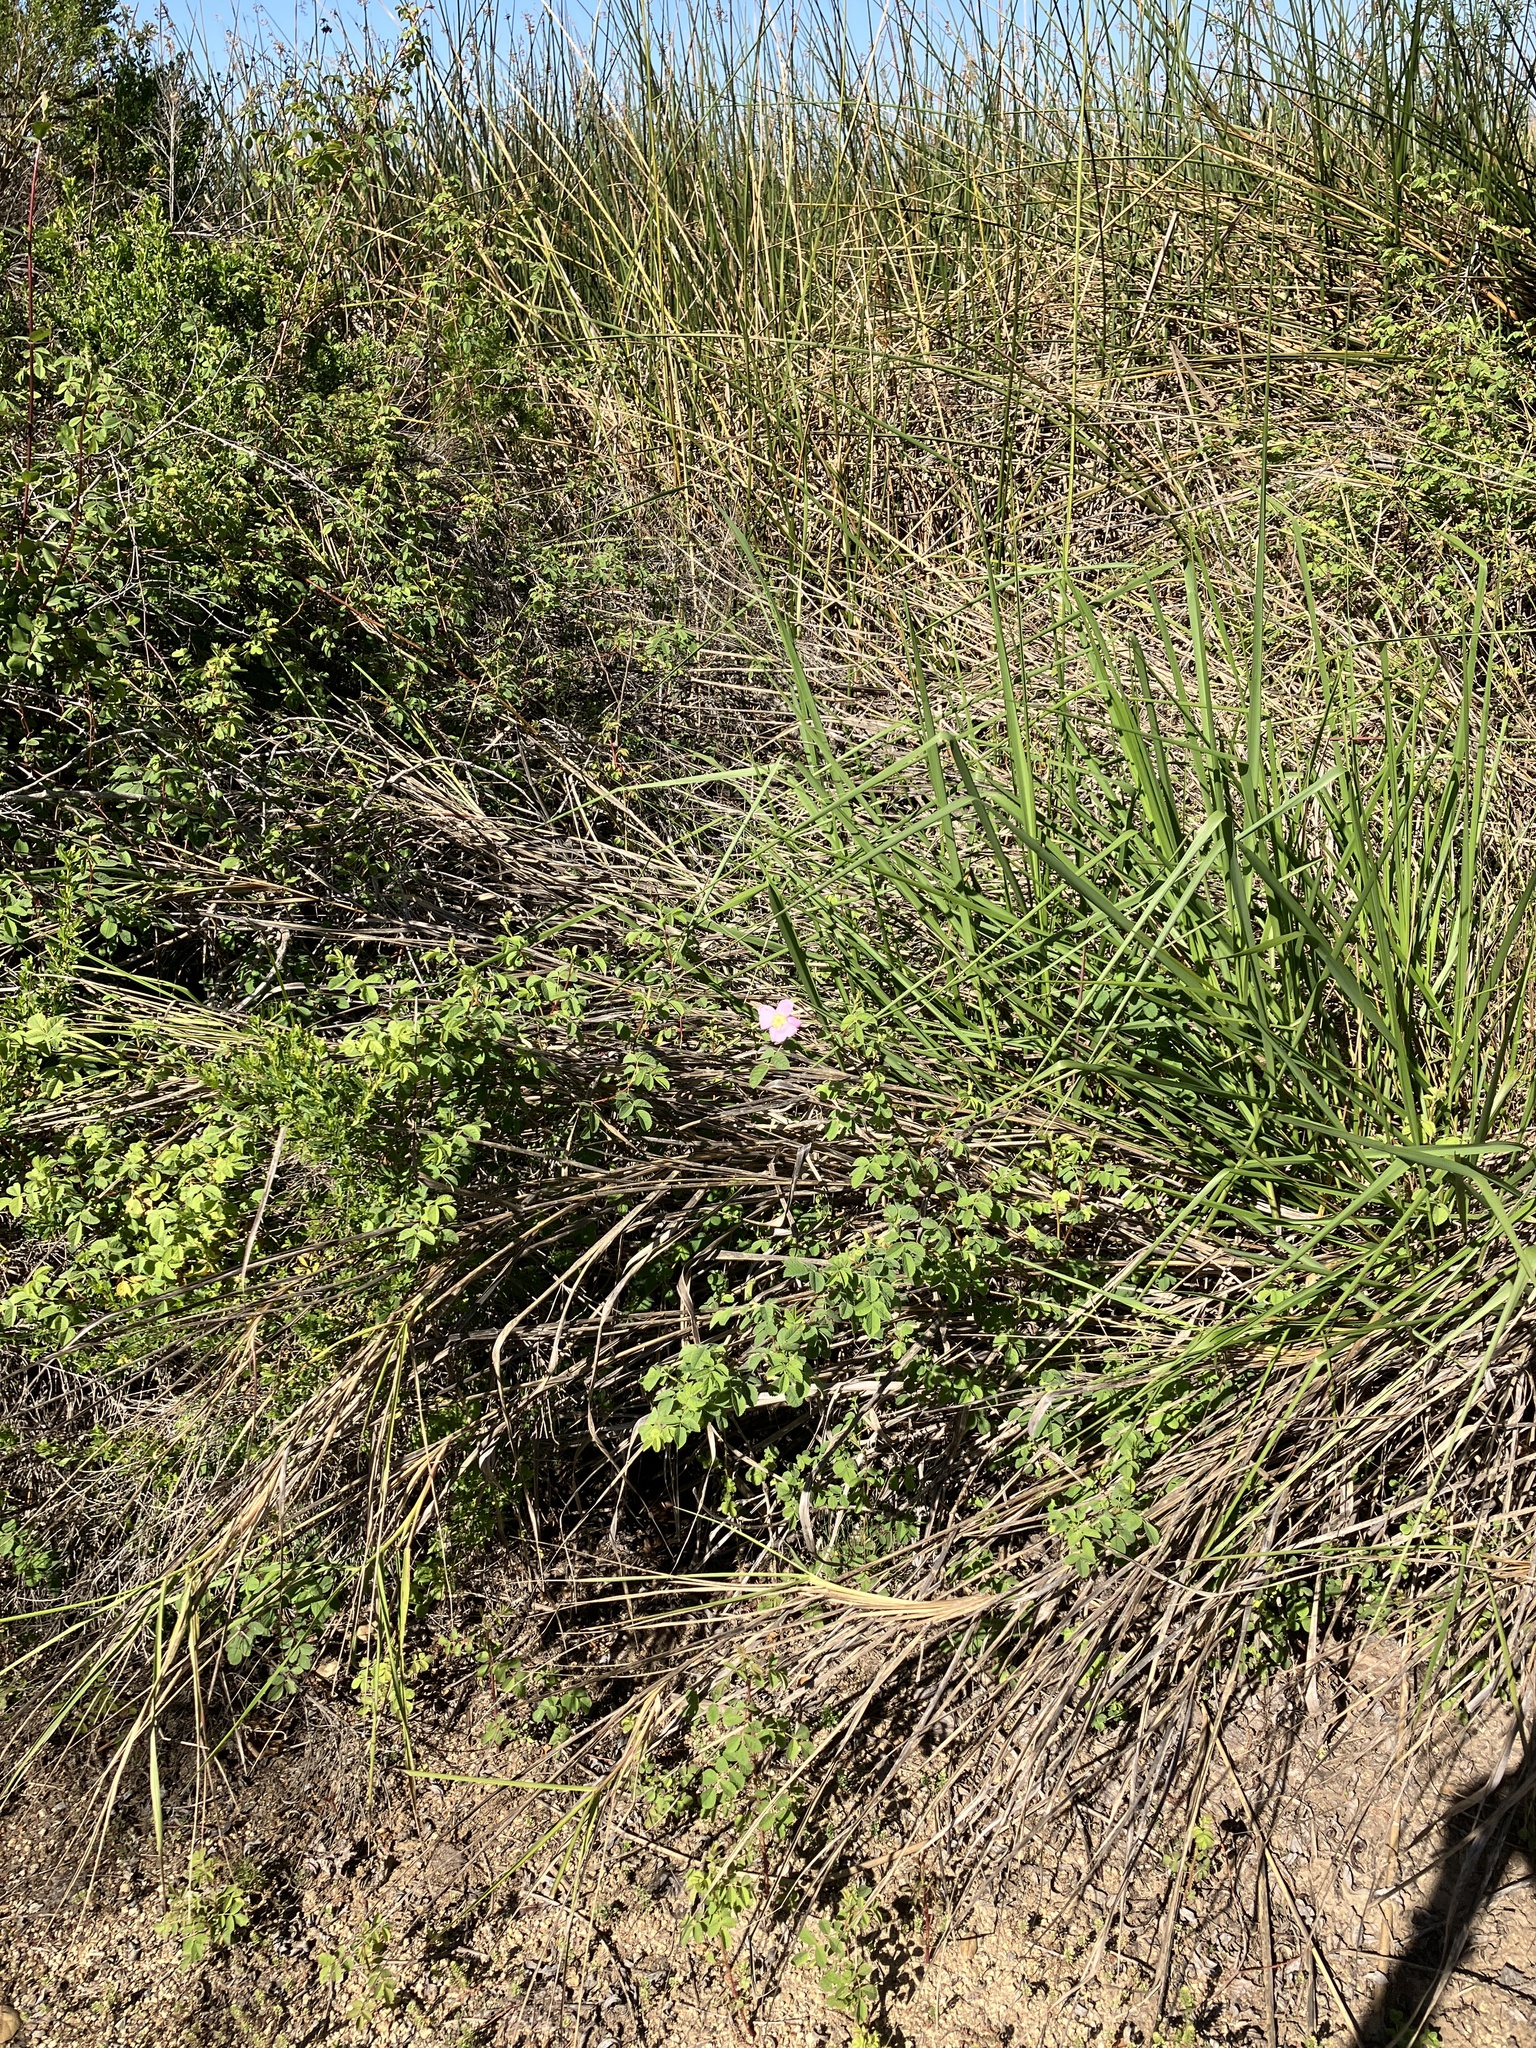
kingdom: Plantae
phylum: Tracheophyta
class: Magnoliopsida
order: Rosales
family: Rosaceae
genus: Rosa
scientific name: Rosa californica
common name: California rose
